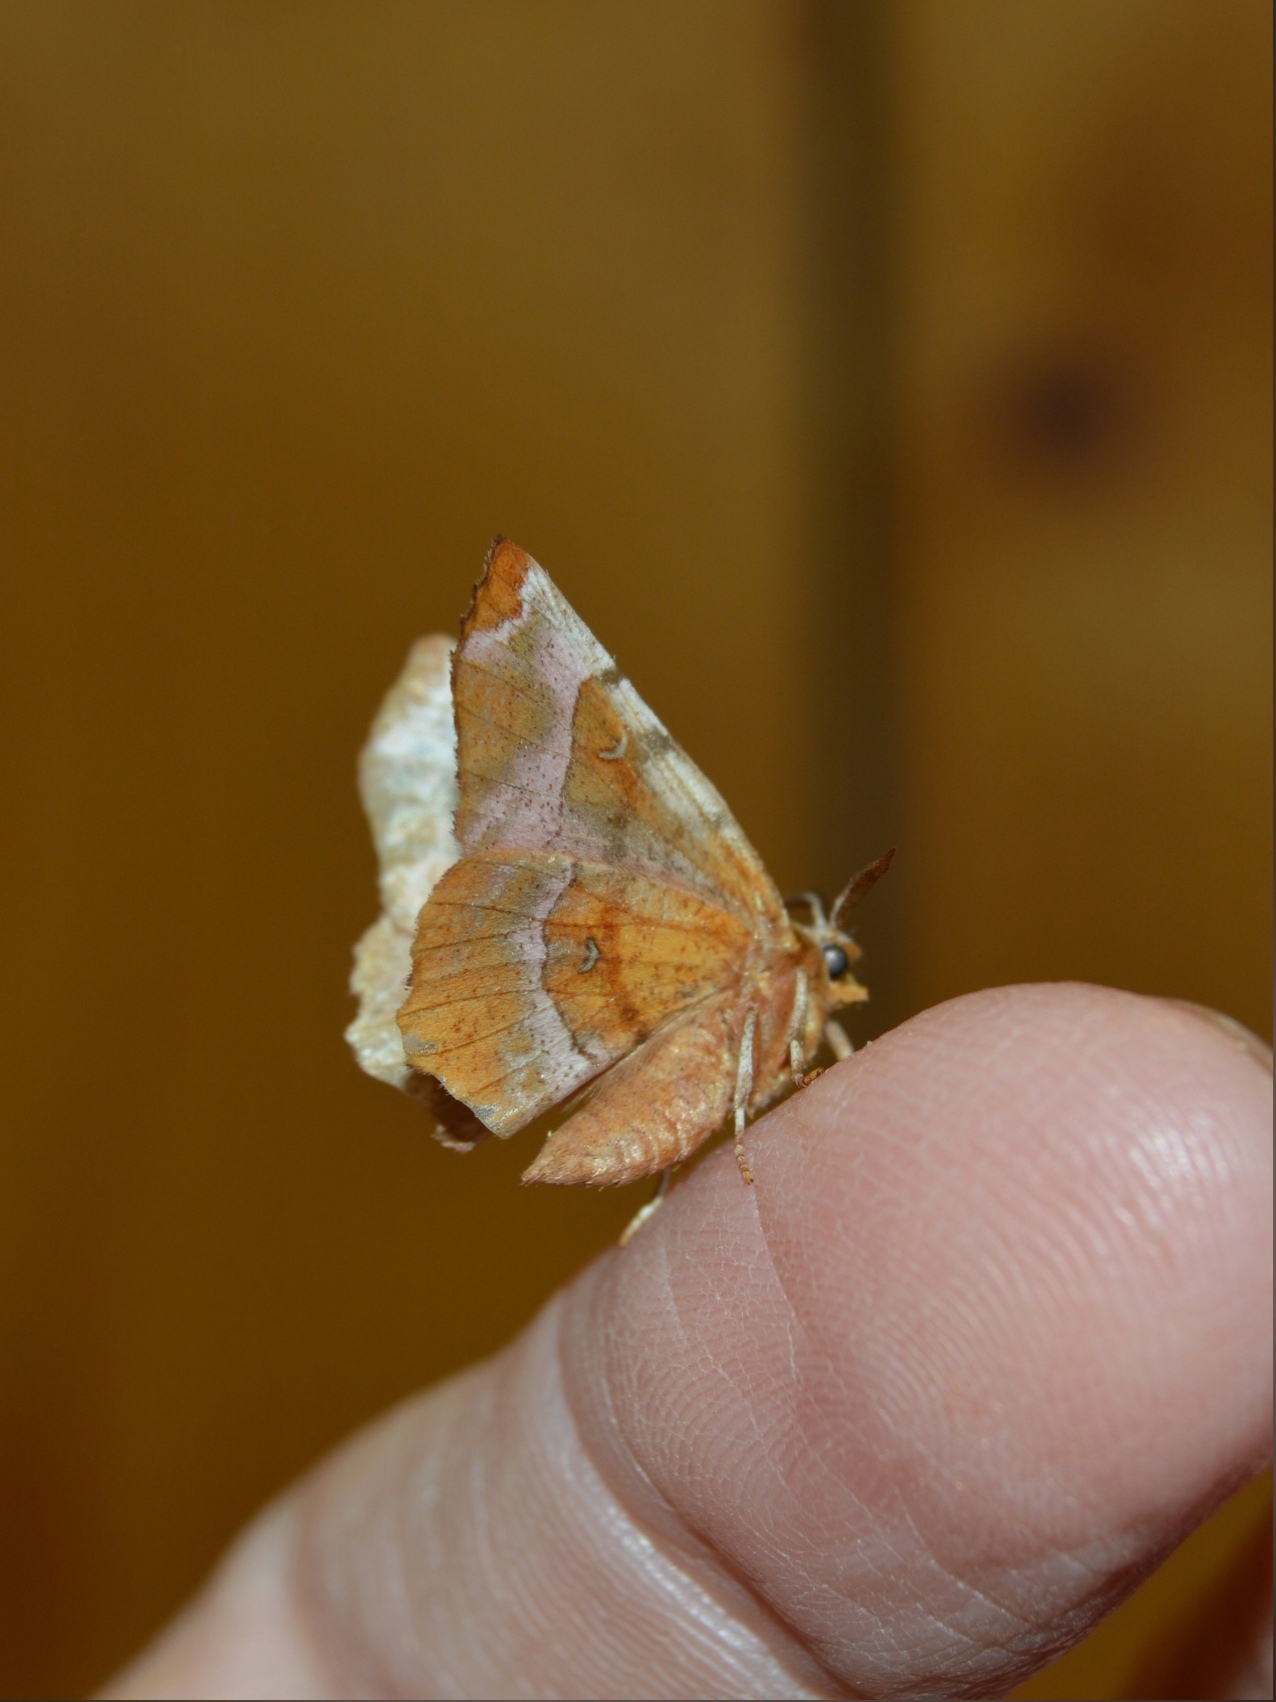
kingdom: Animalia
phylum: Arthropoda
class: Insecta
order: Lepidoptera
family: Geometridae
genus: Selenia
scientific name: Selenia tetralunaria
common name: Purple thorn
